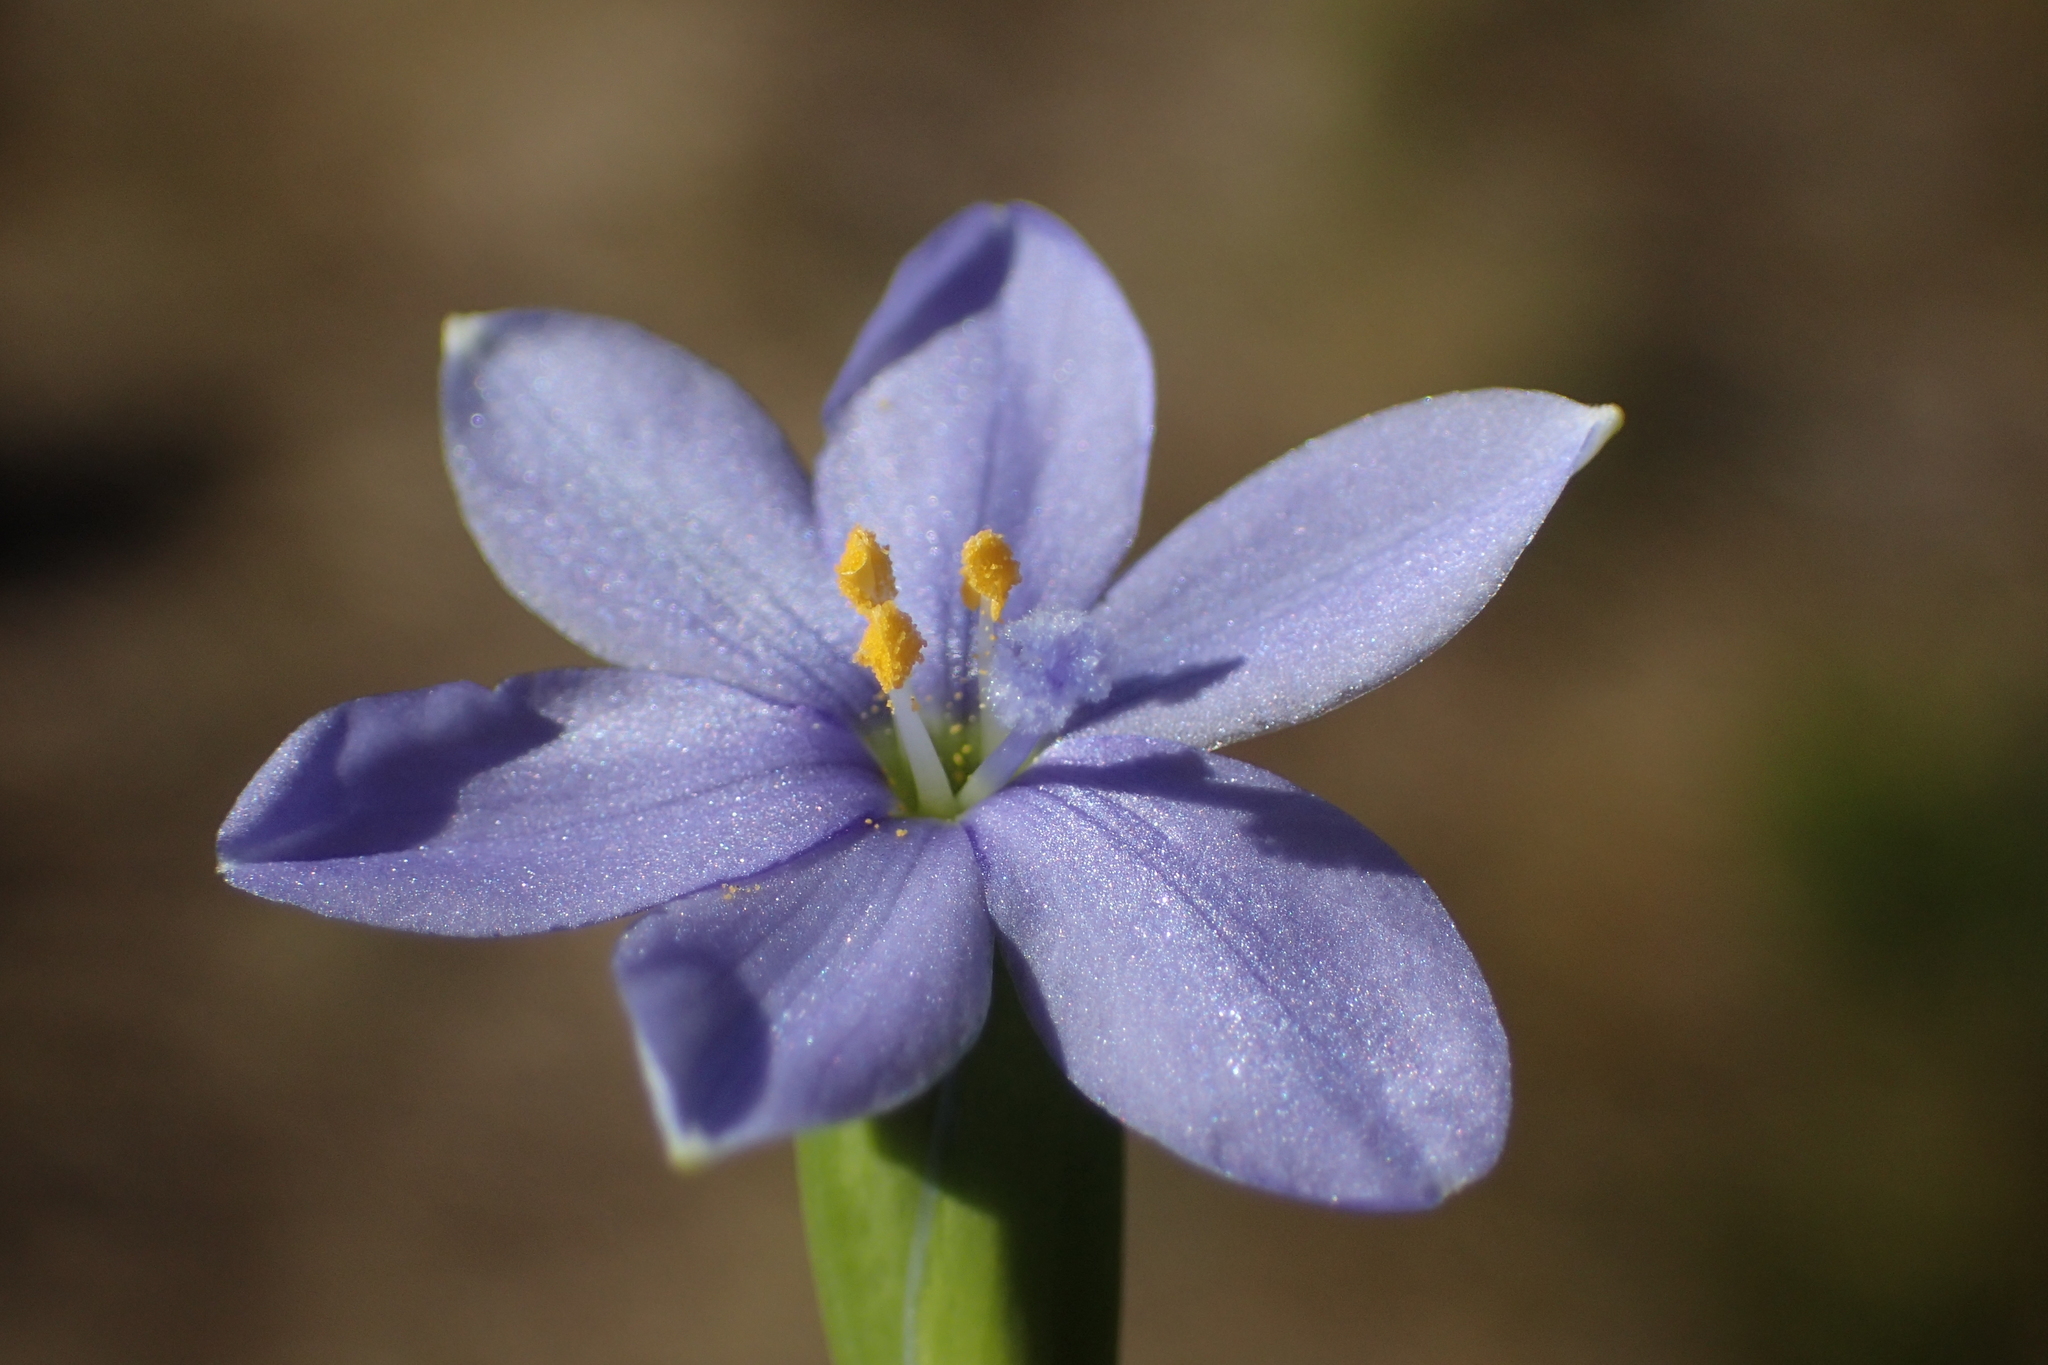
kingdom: Plantae
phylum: Tracheophyta
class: Liliopsida
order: Asparagales
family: Iridaceae
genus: Aristea
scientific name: Aristea pusilla
